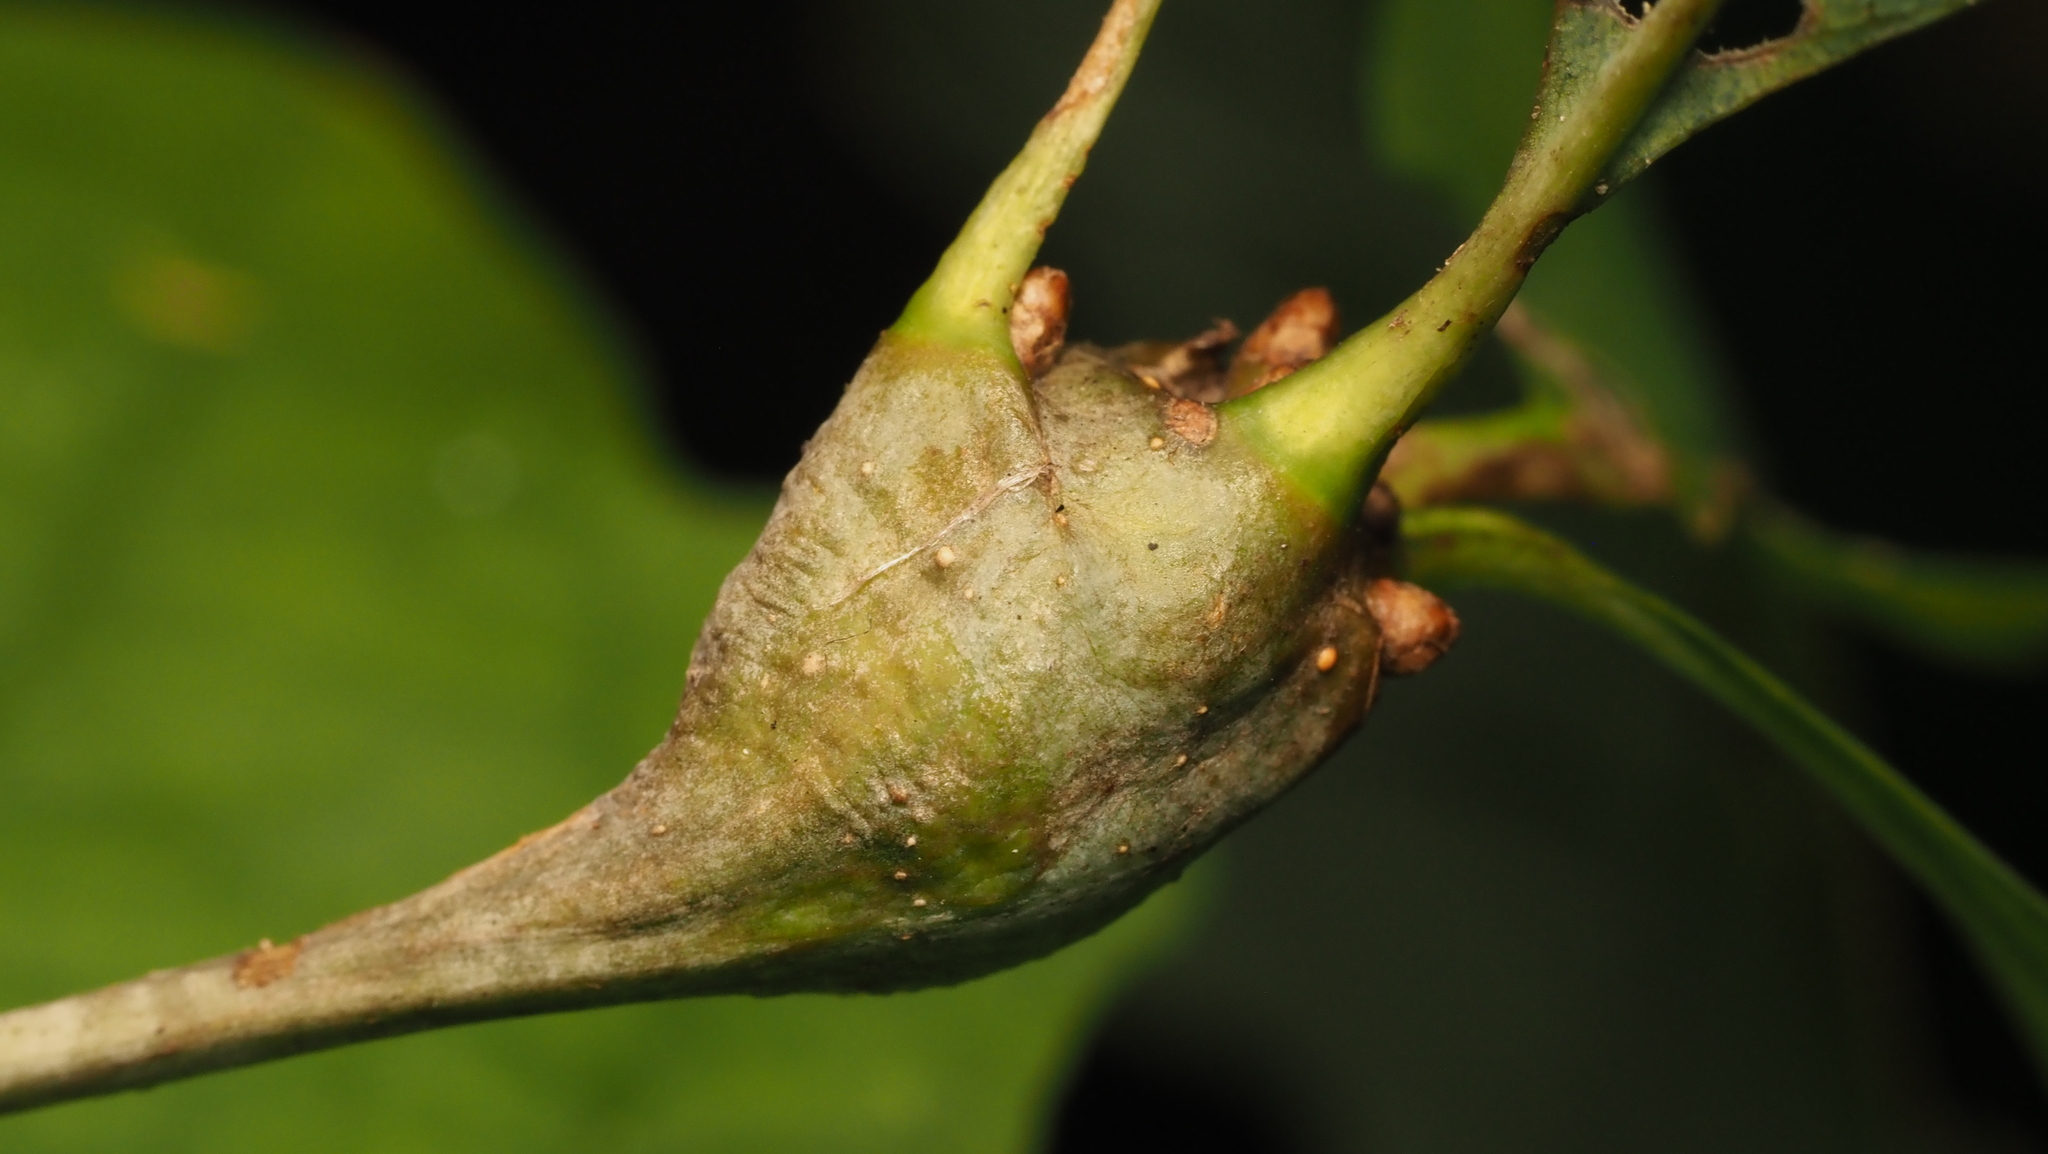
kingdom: Animalia
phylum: Arthropoda
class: Insecta
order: Hymenoptera
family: Cynipidae
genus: Callirhytis
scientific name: Callirhytis clavula
